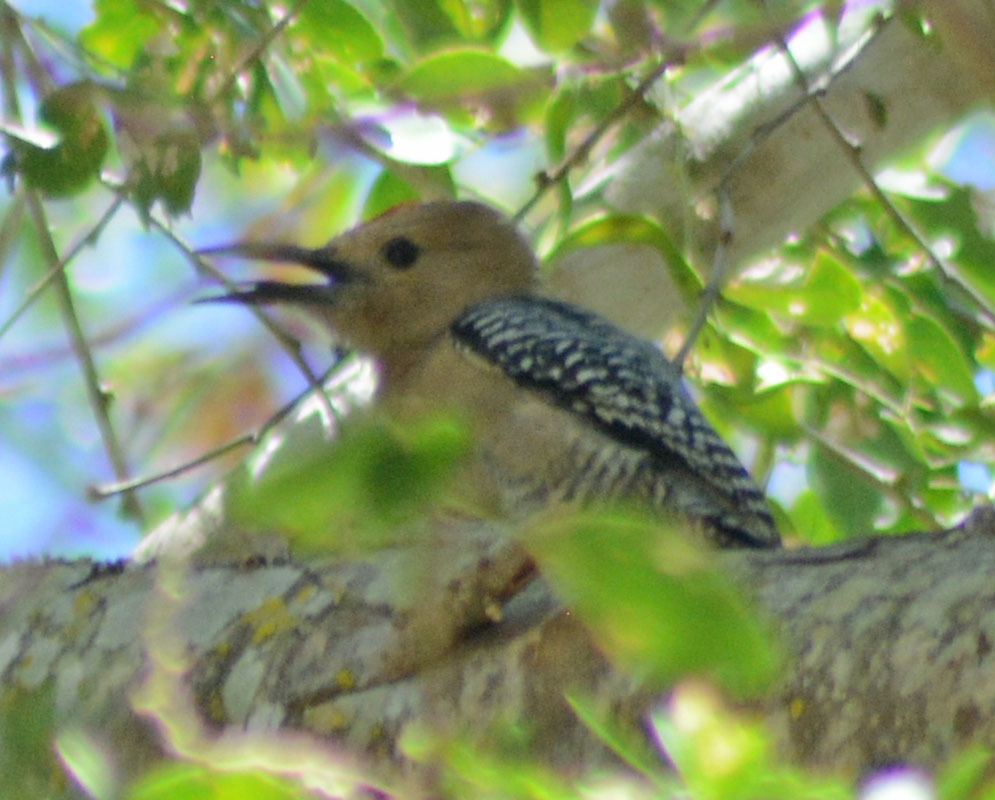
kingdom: Animalia
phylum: Chordata
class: Aves
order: Piciformes
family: Picidae
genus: Melanerpes
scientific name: Melanerpes uropygialis
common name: Gila woodpecker
